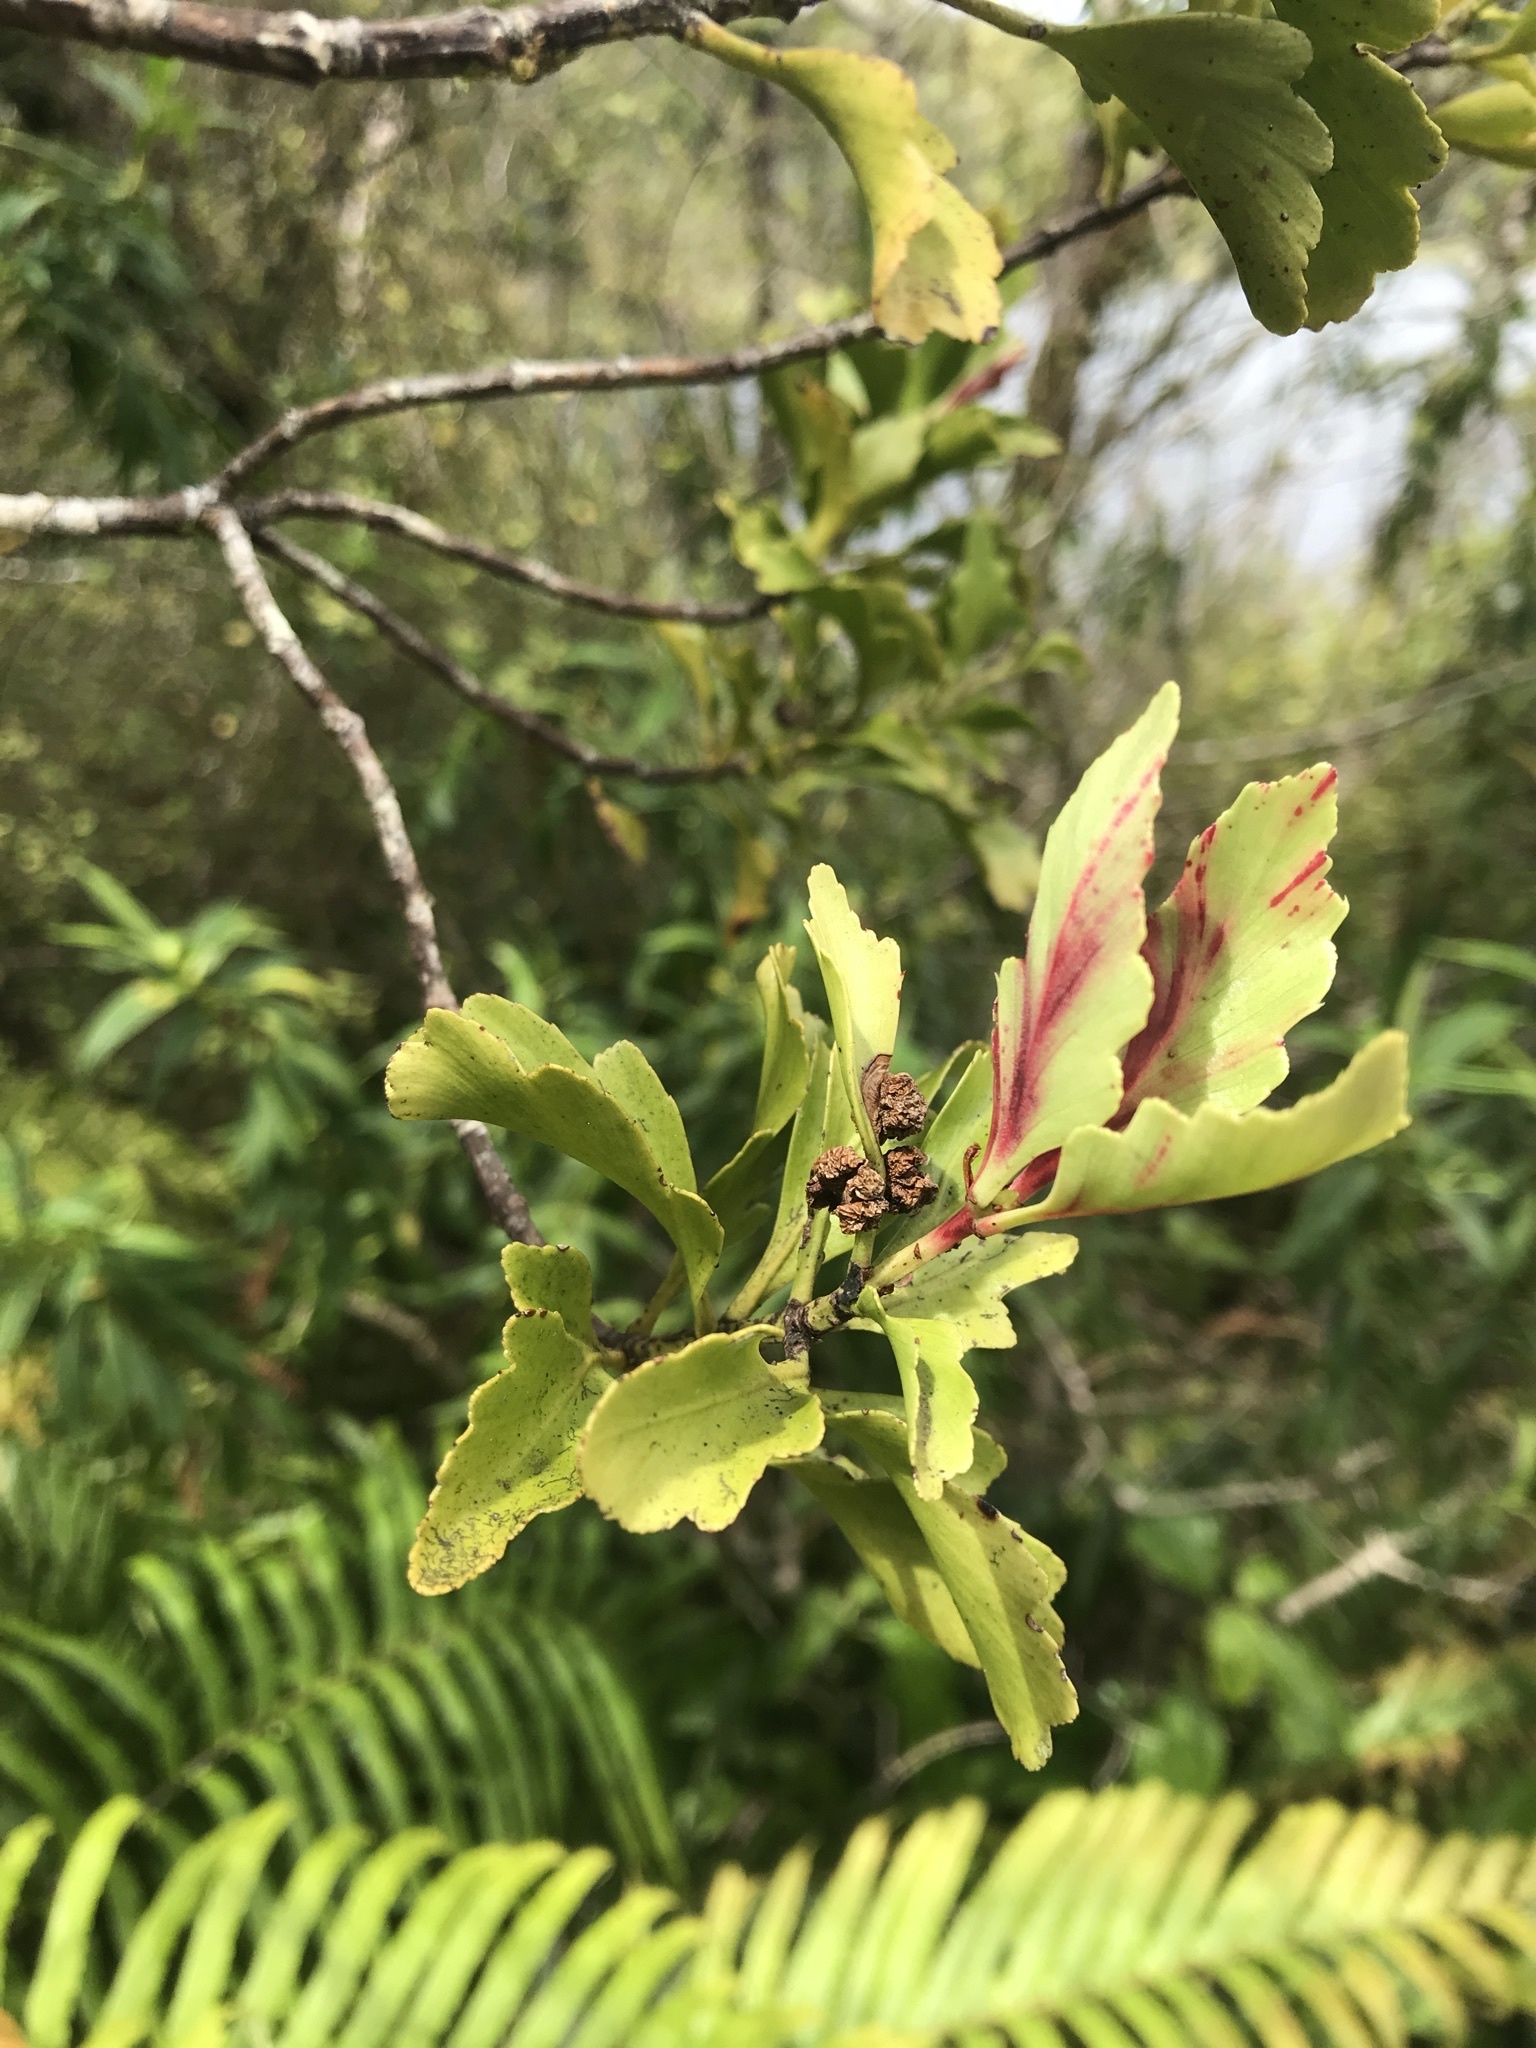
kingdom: Plantae
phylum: Tracheophyta
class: Pinopsida
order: Pinales
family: Phyllocladaceae
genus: Phyllocladus
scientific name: Phyllocladus trichomanoides
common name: Celery pine
